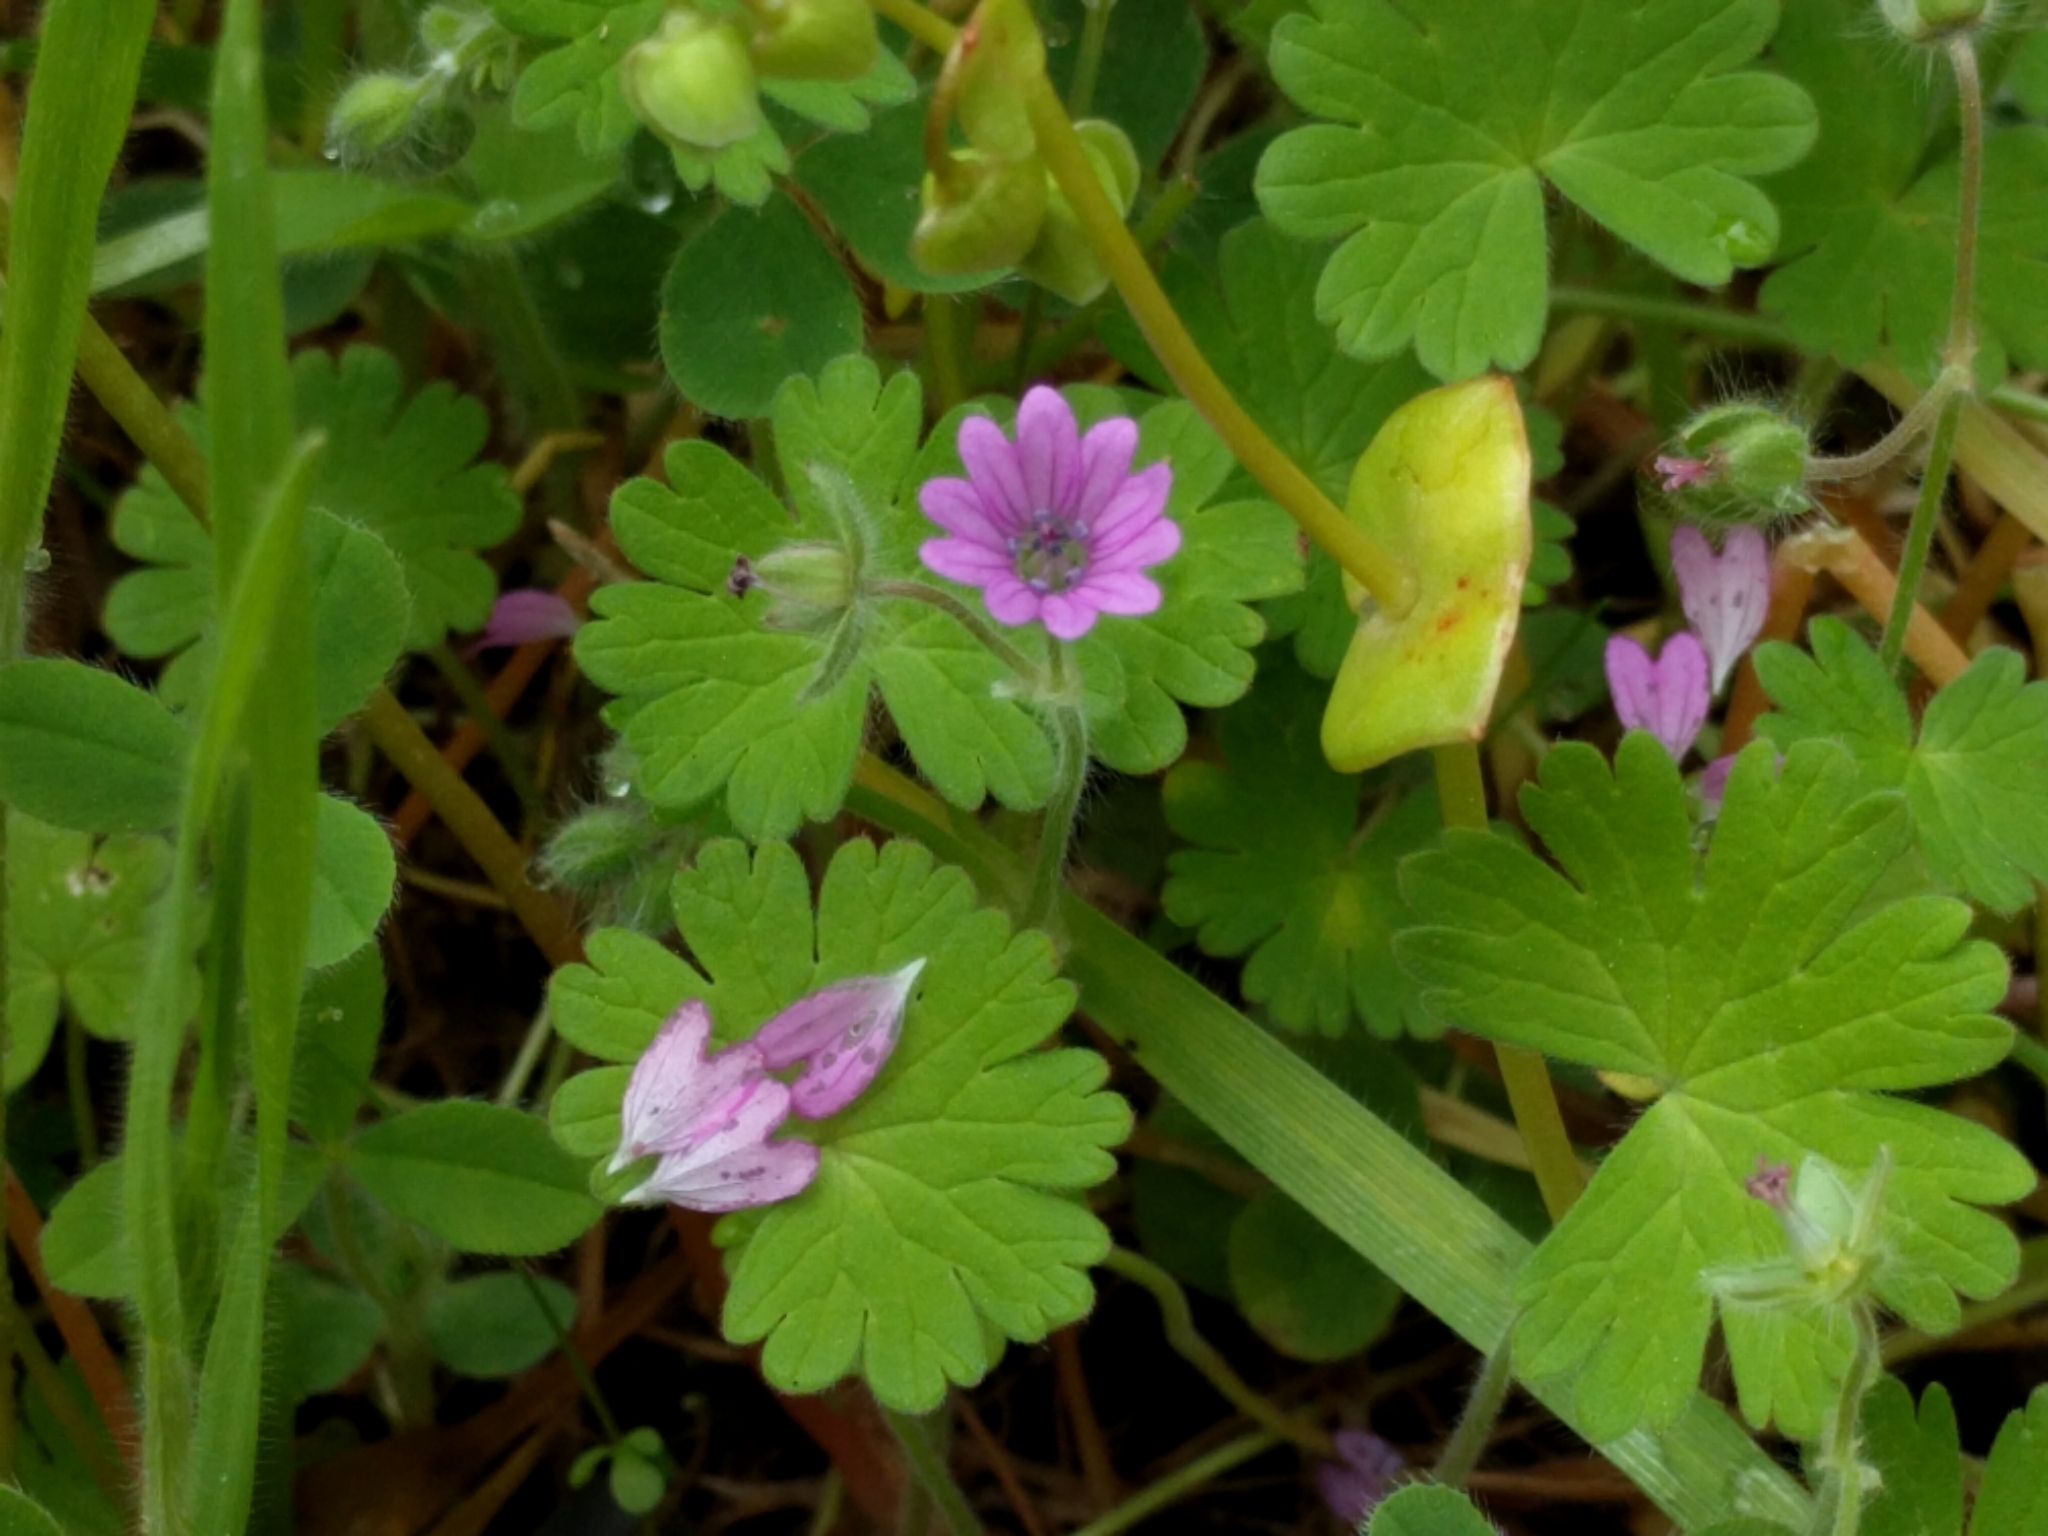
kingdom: Plantae
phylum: Tracheophyta
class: Magnoliopsida
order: Geraniales
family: Geraniaceae
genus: Geranium
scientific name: Geranium molle
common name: Dove's-foot crane's-bill
